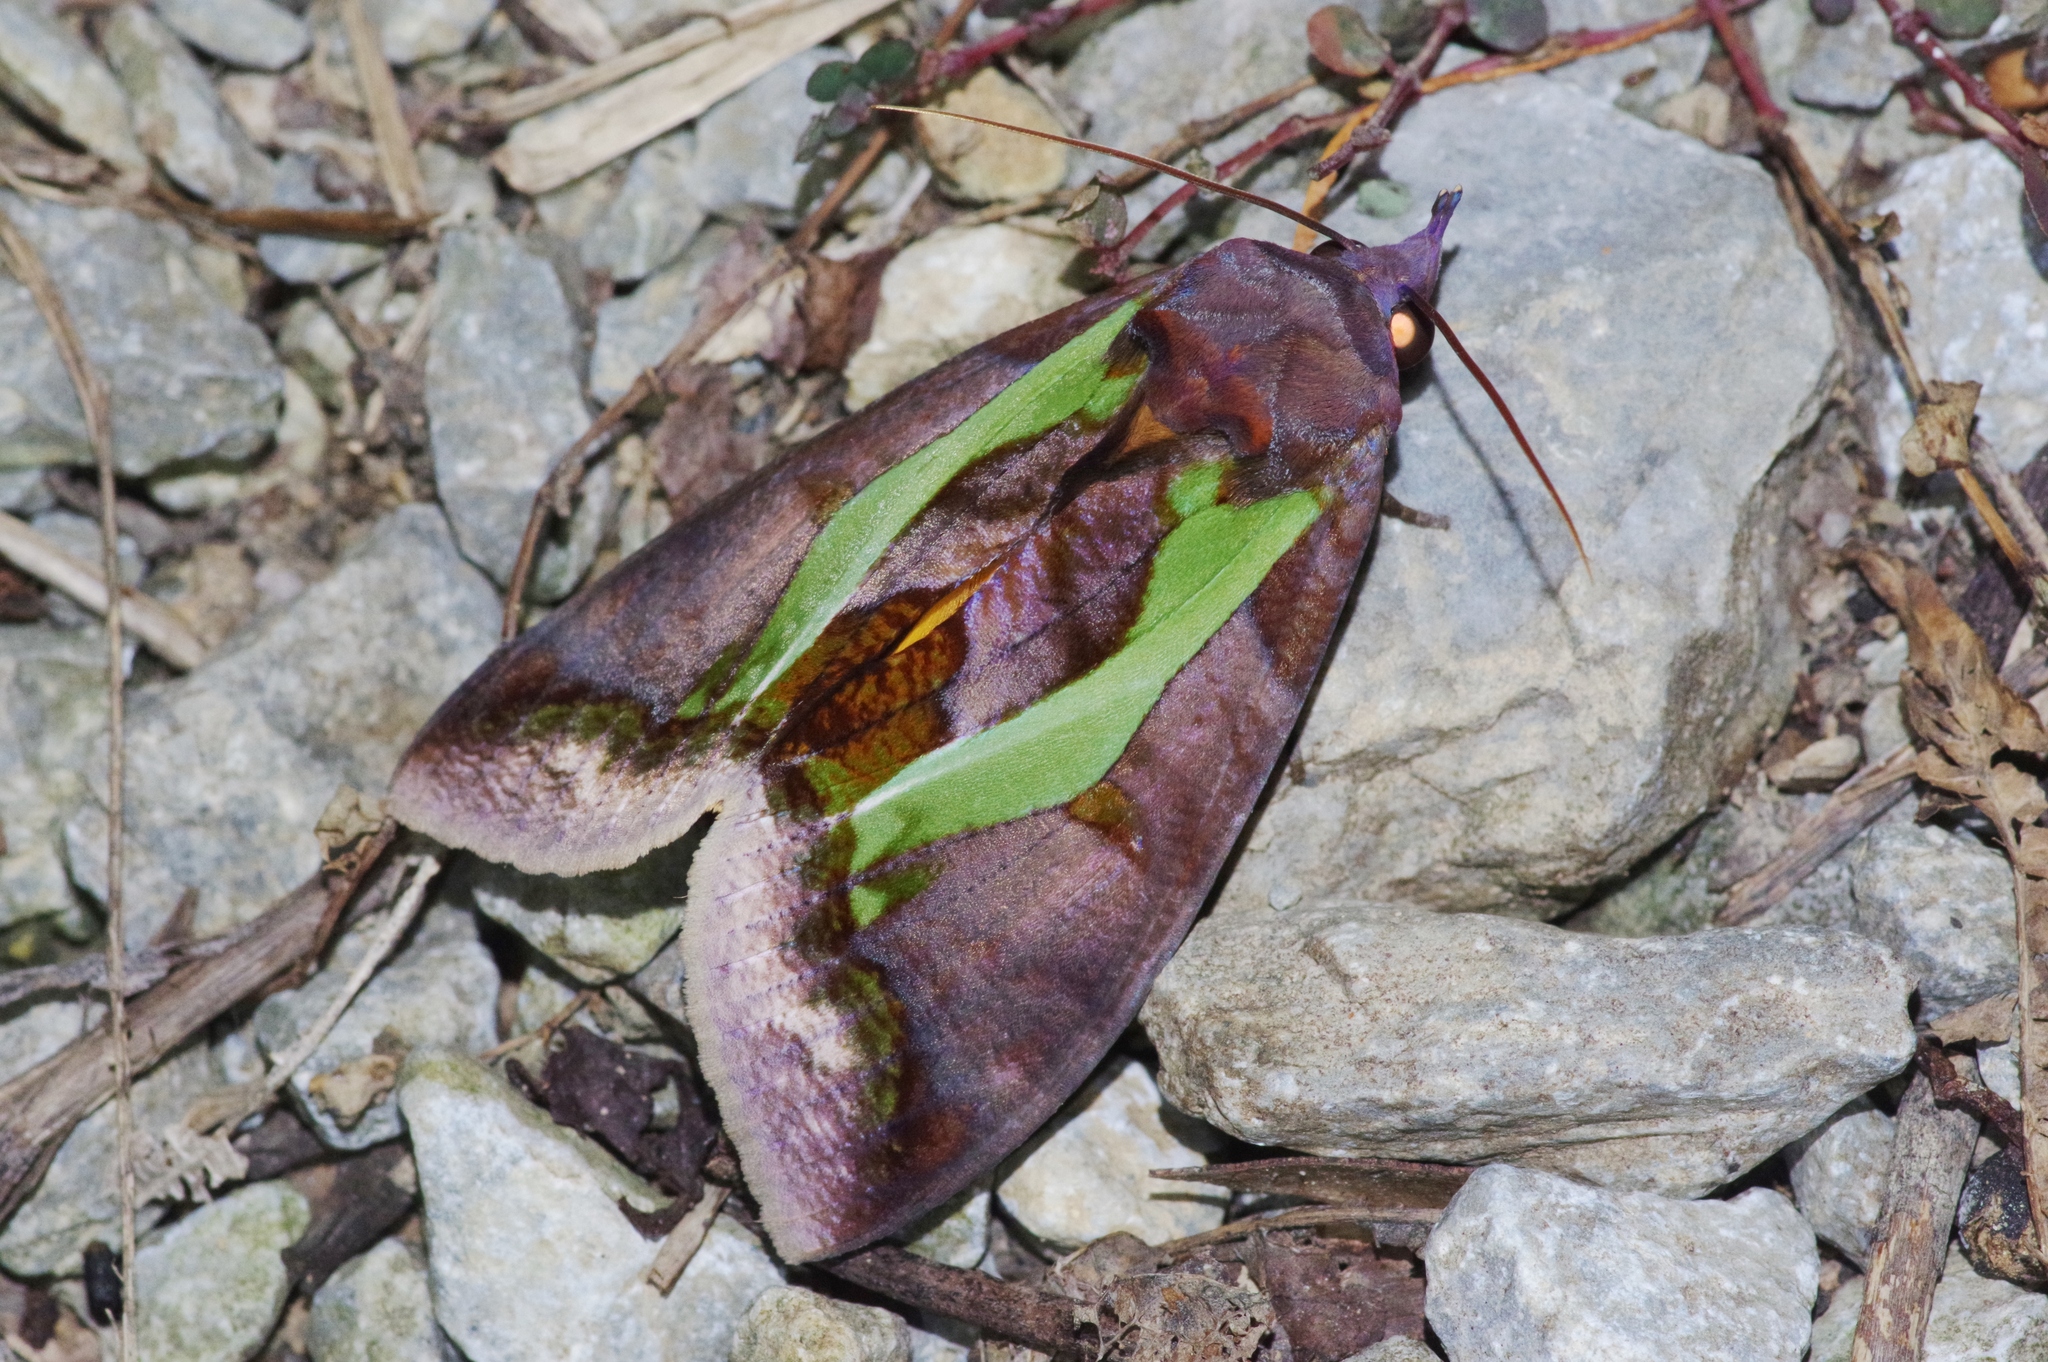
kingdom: Animalia
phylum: Arthropoda
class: Insecta
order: Lepidoptera
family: Erebidae
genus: Eudocima
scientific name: Eudocima homaena
